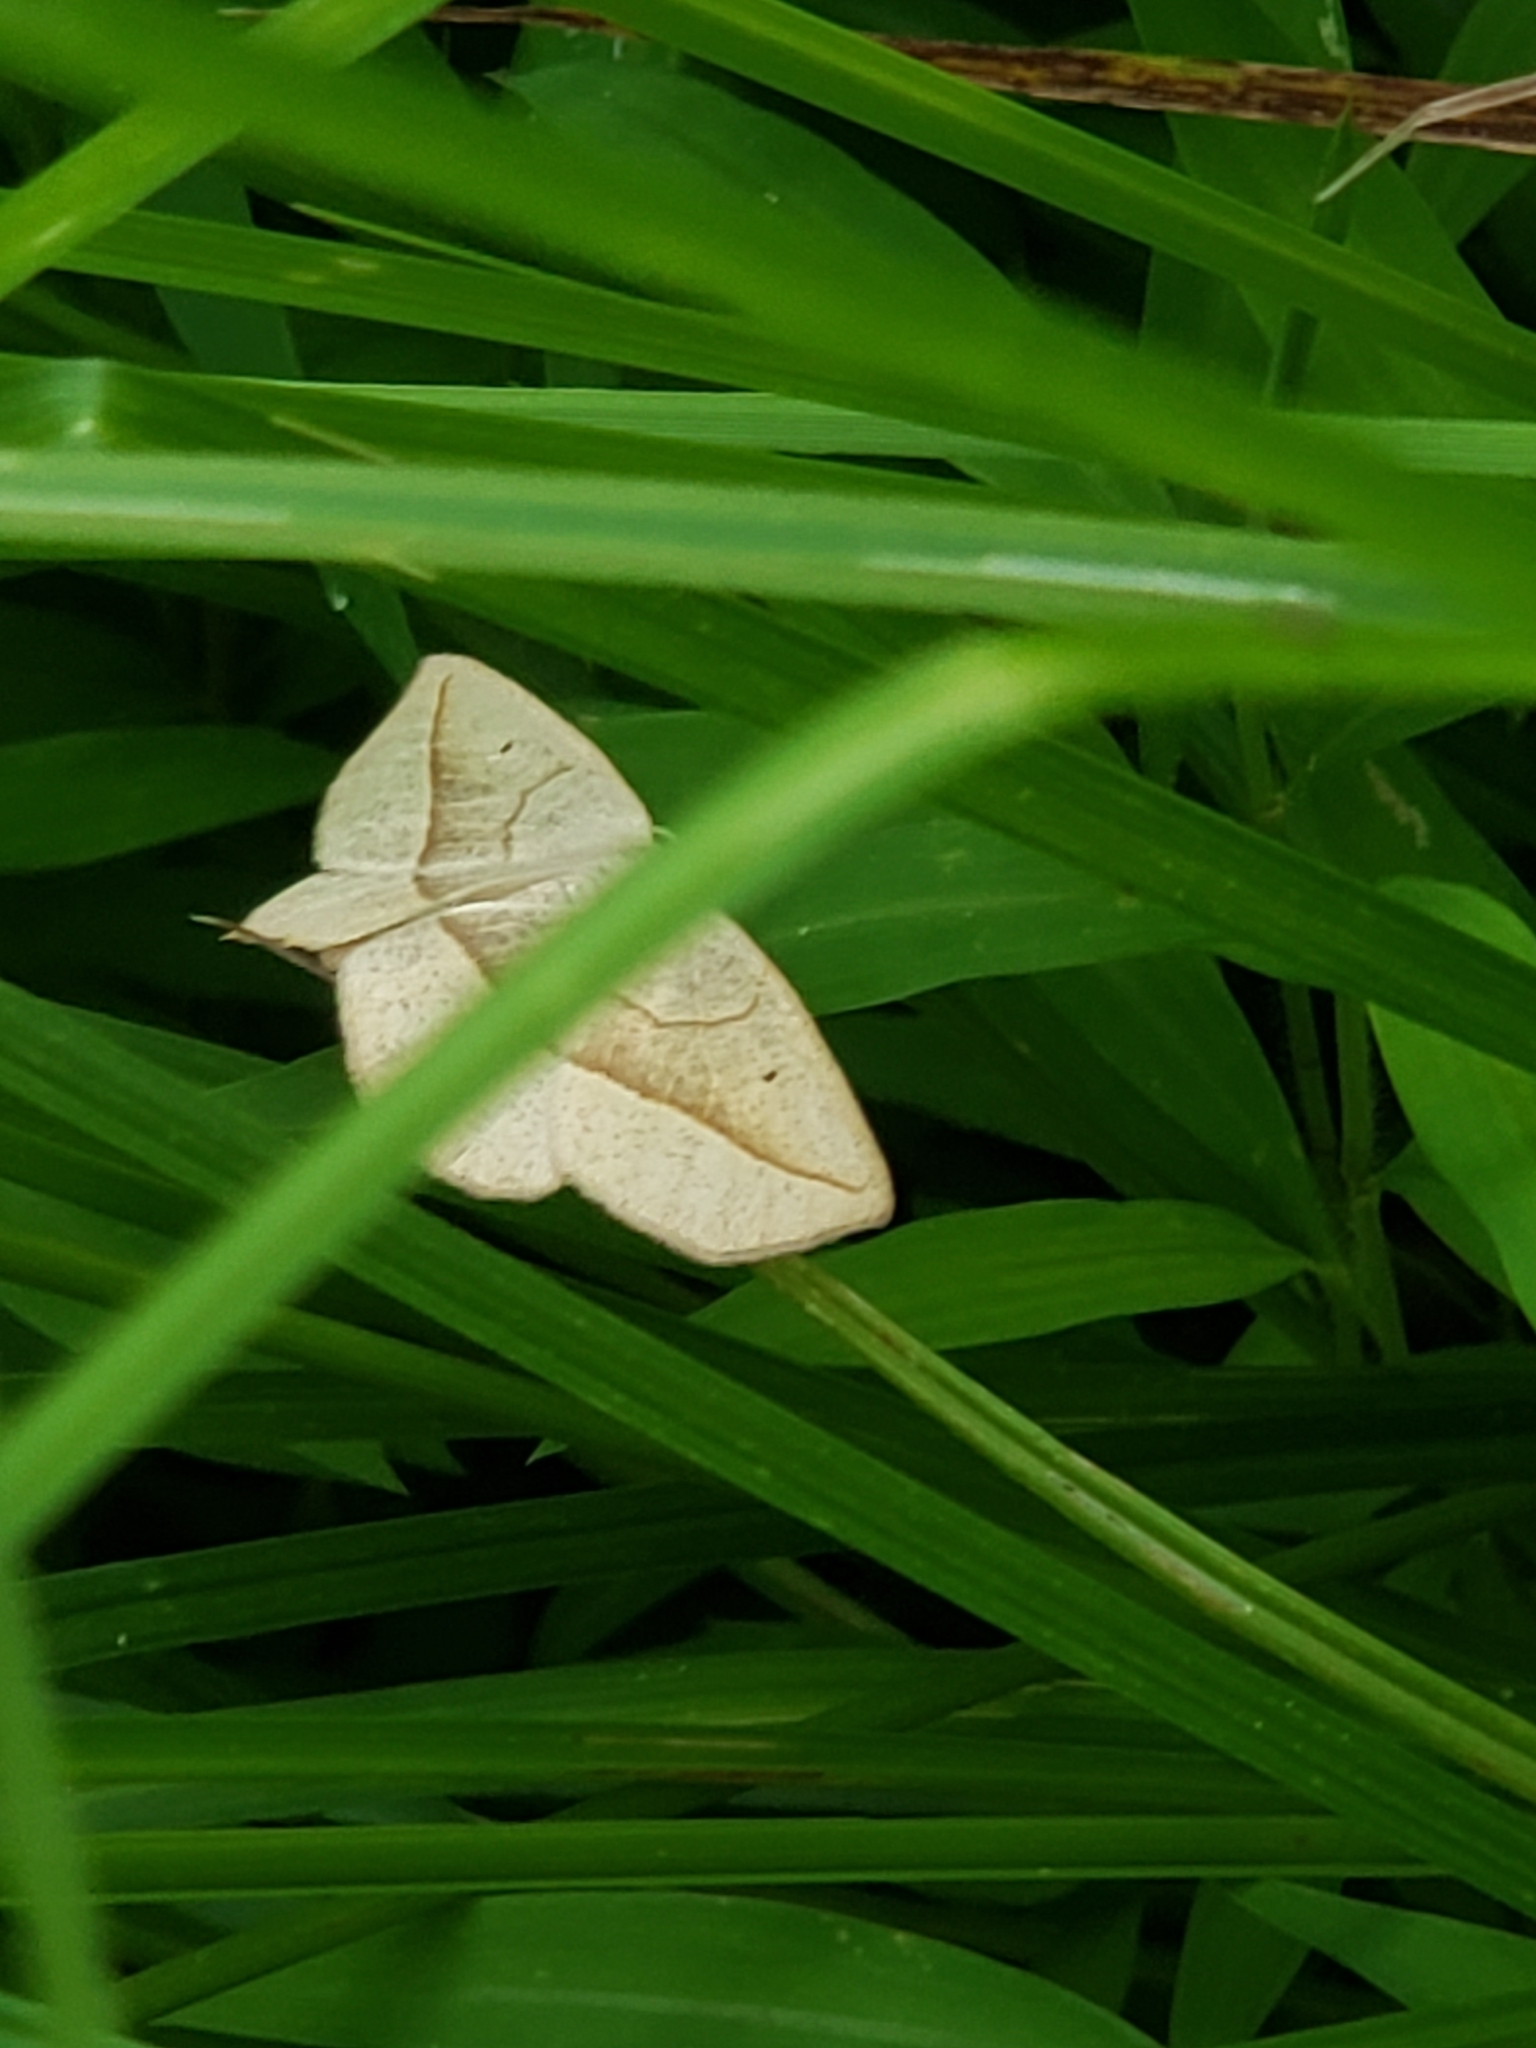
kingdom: Animalia
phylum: Arthropoda
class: Insecta
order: Lepidoptera
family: Geometridae
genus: Eusarca
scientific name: Eusarca confusaria
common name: Confused eusarca
